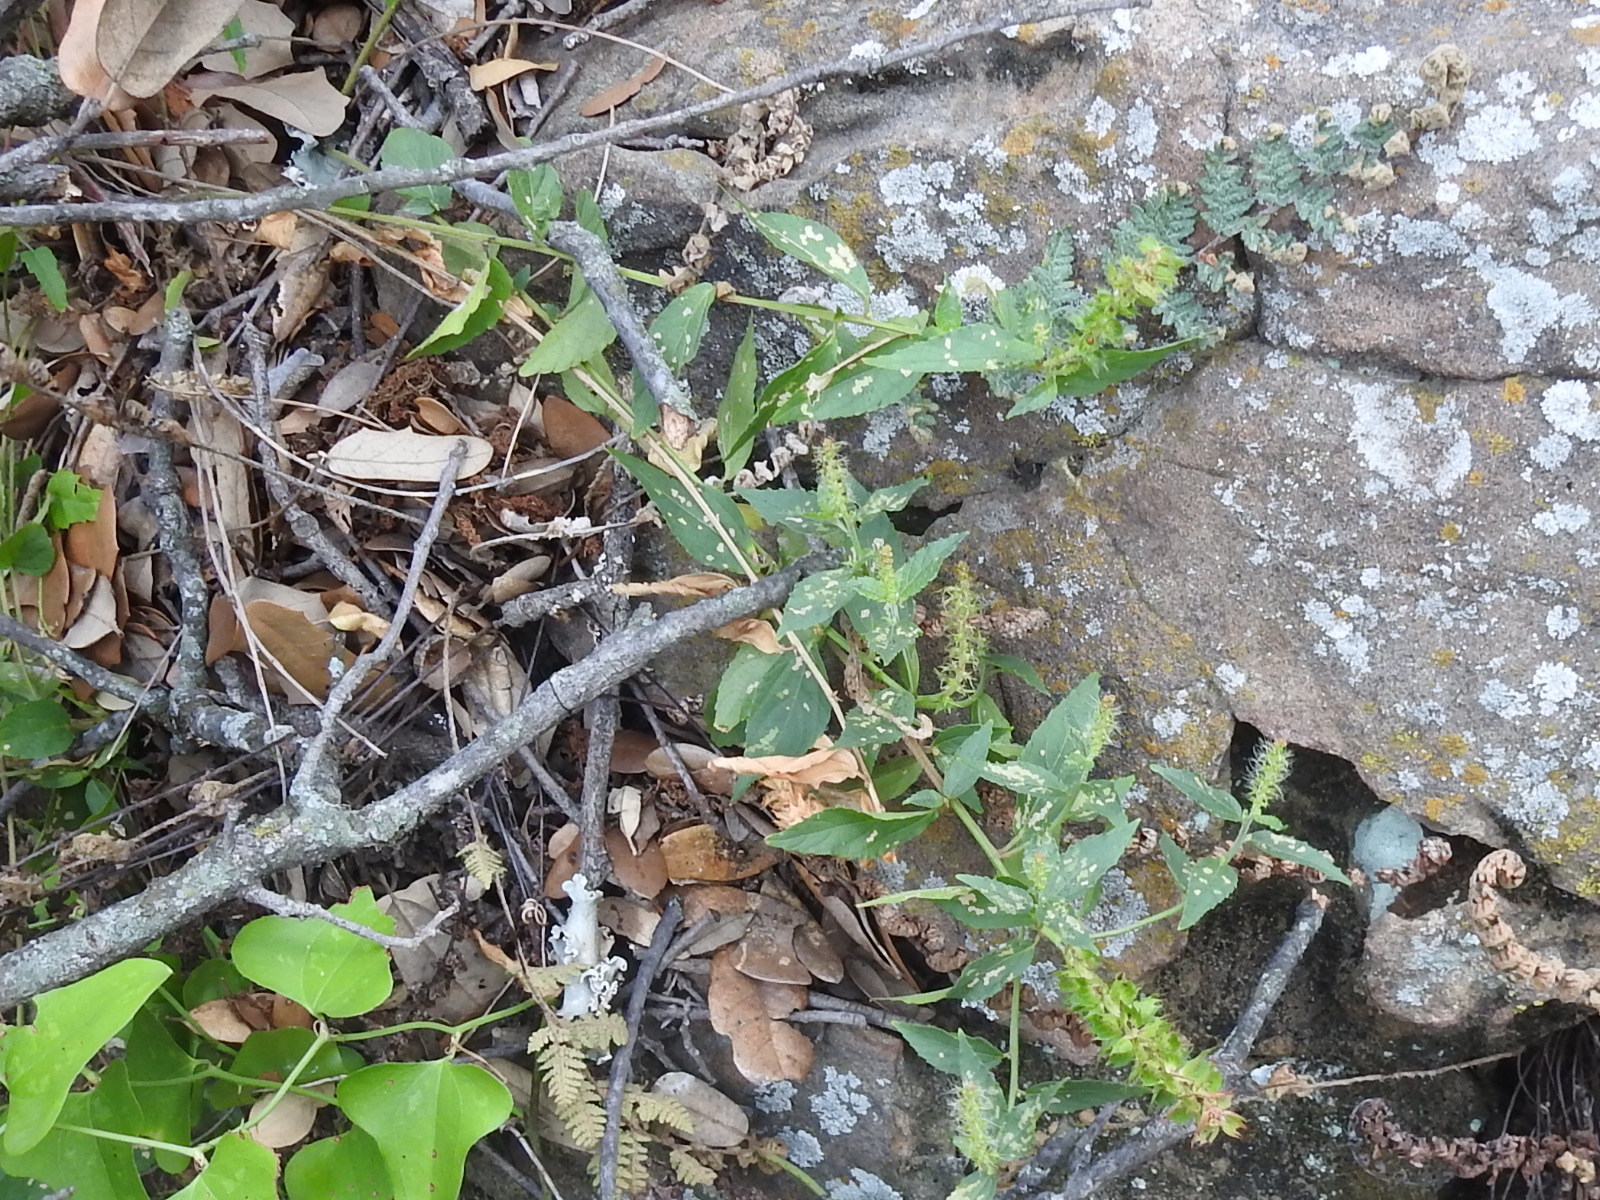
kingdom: Plantae
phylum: Tracheophyta
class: Magnoliopsida
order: Malpighiales
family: Euphorbiaceae
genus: Acalypha
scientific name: Acalypha phleoides
